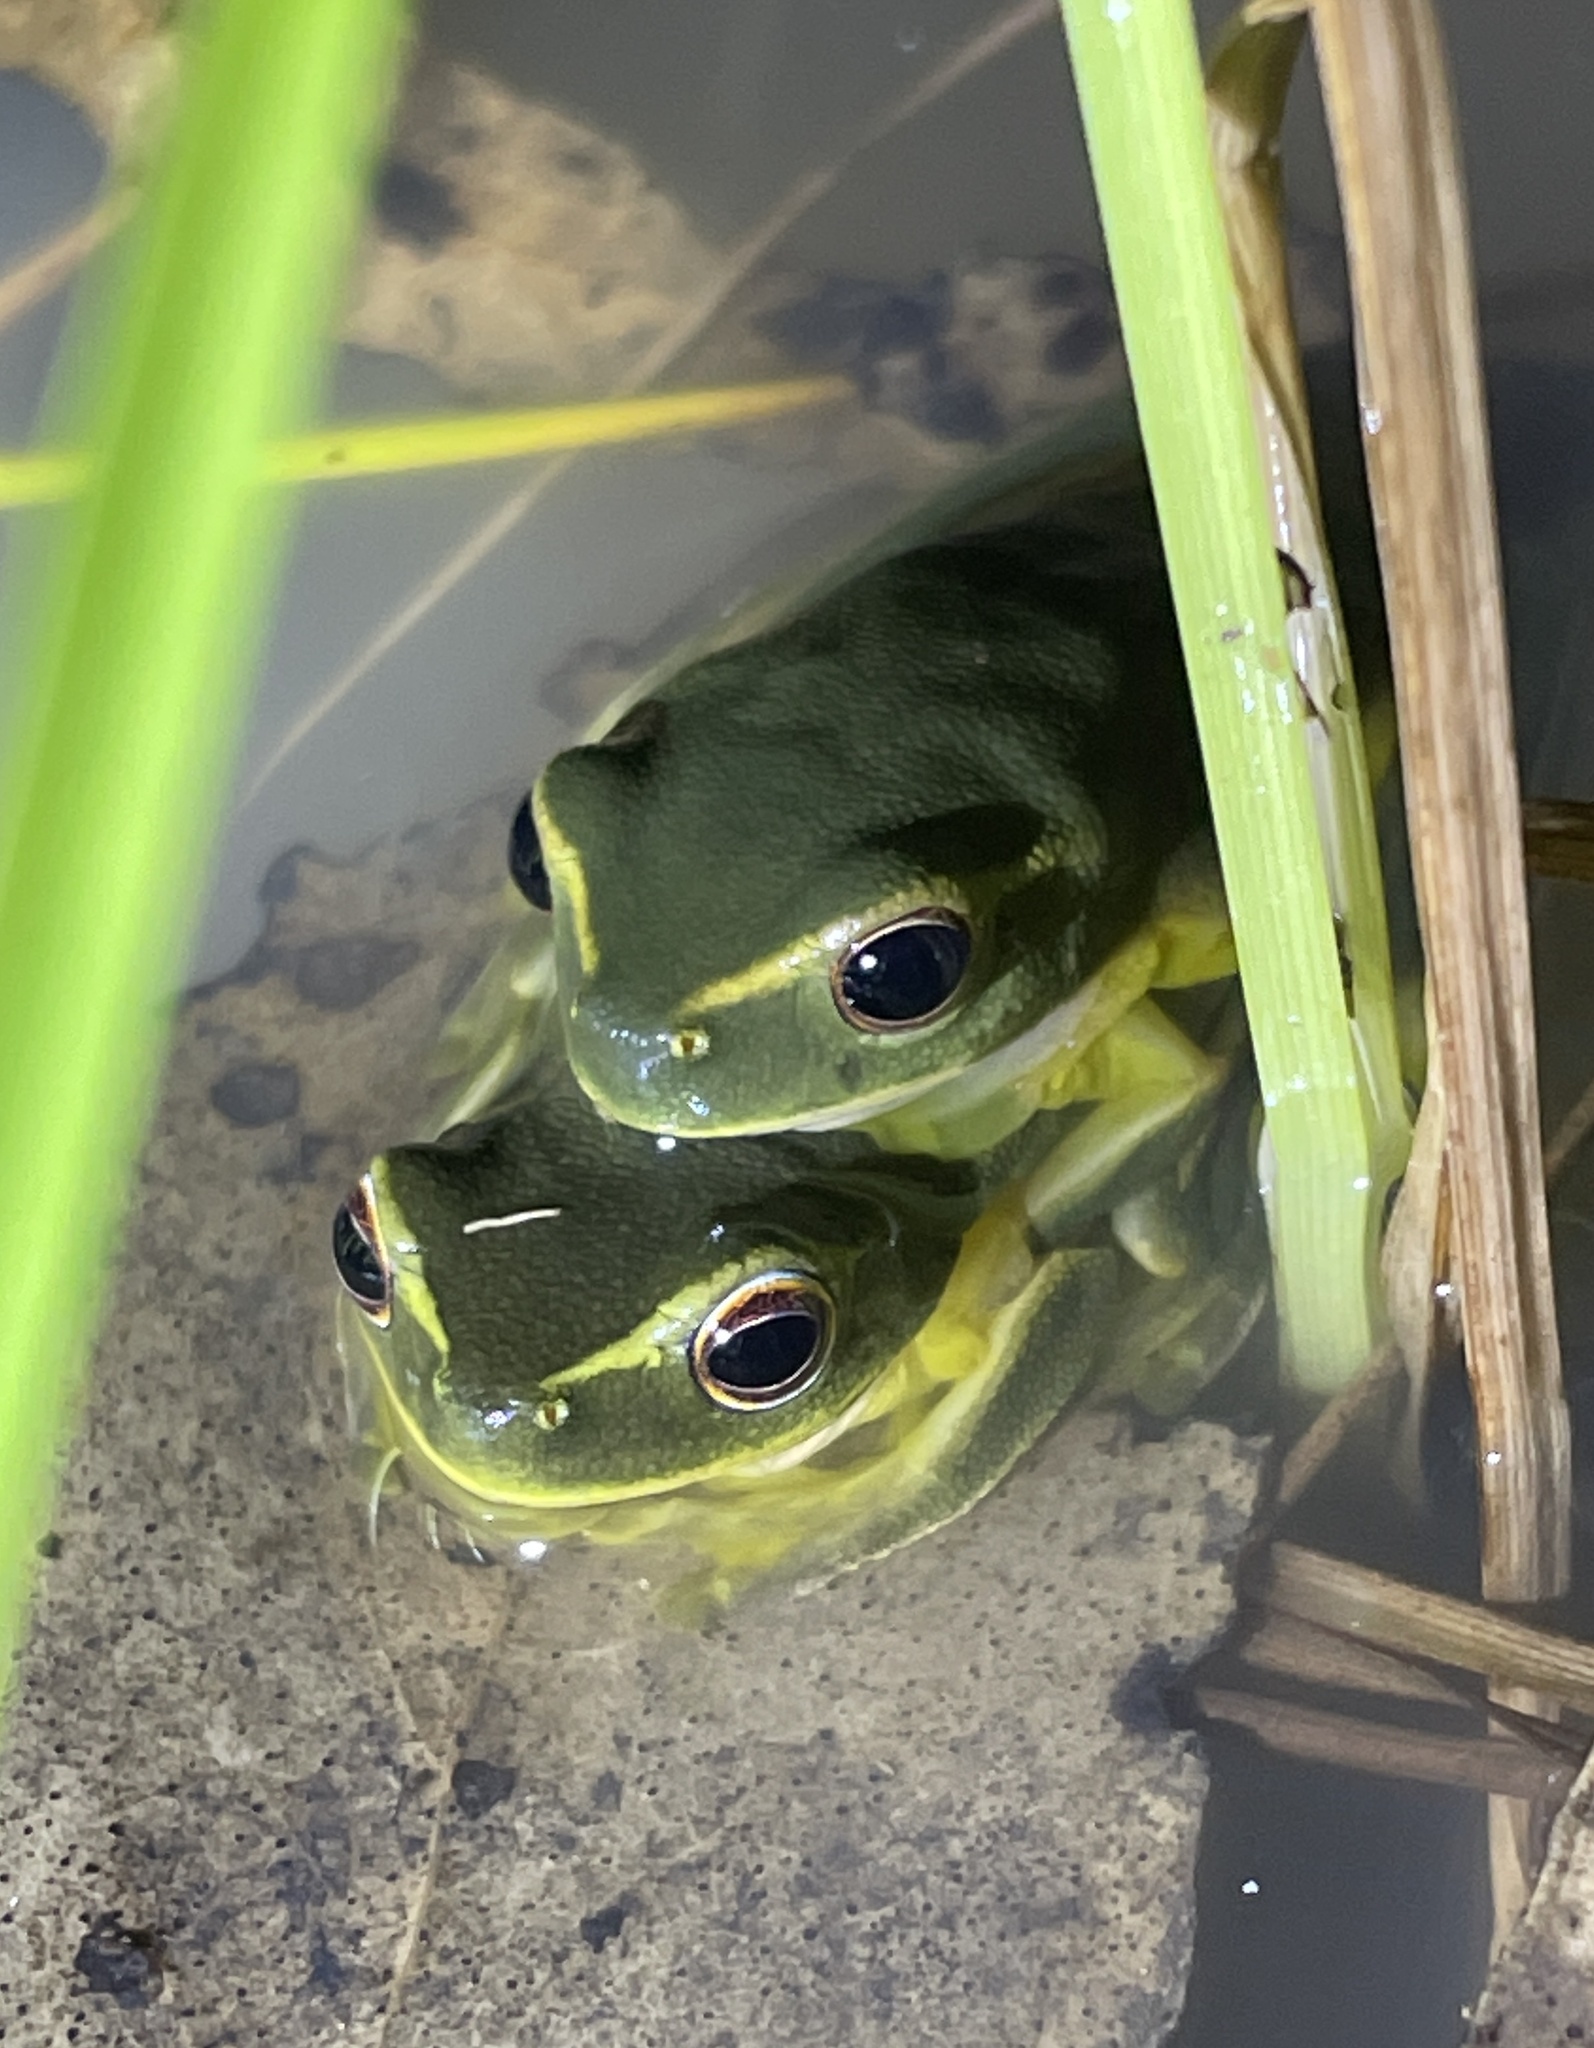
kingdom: Animalia
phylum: Chordata
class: Amphibia
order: Anura
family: Pelodryadidae
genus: Ranoidea
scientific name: Ranoidea gracilenta
